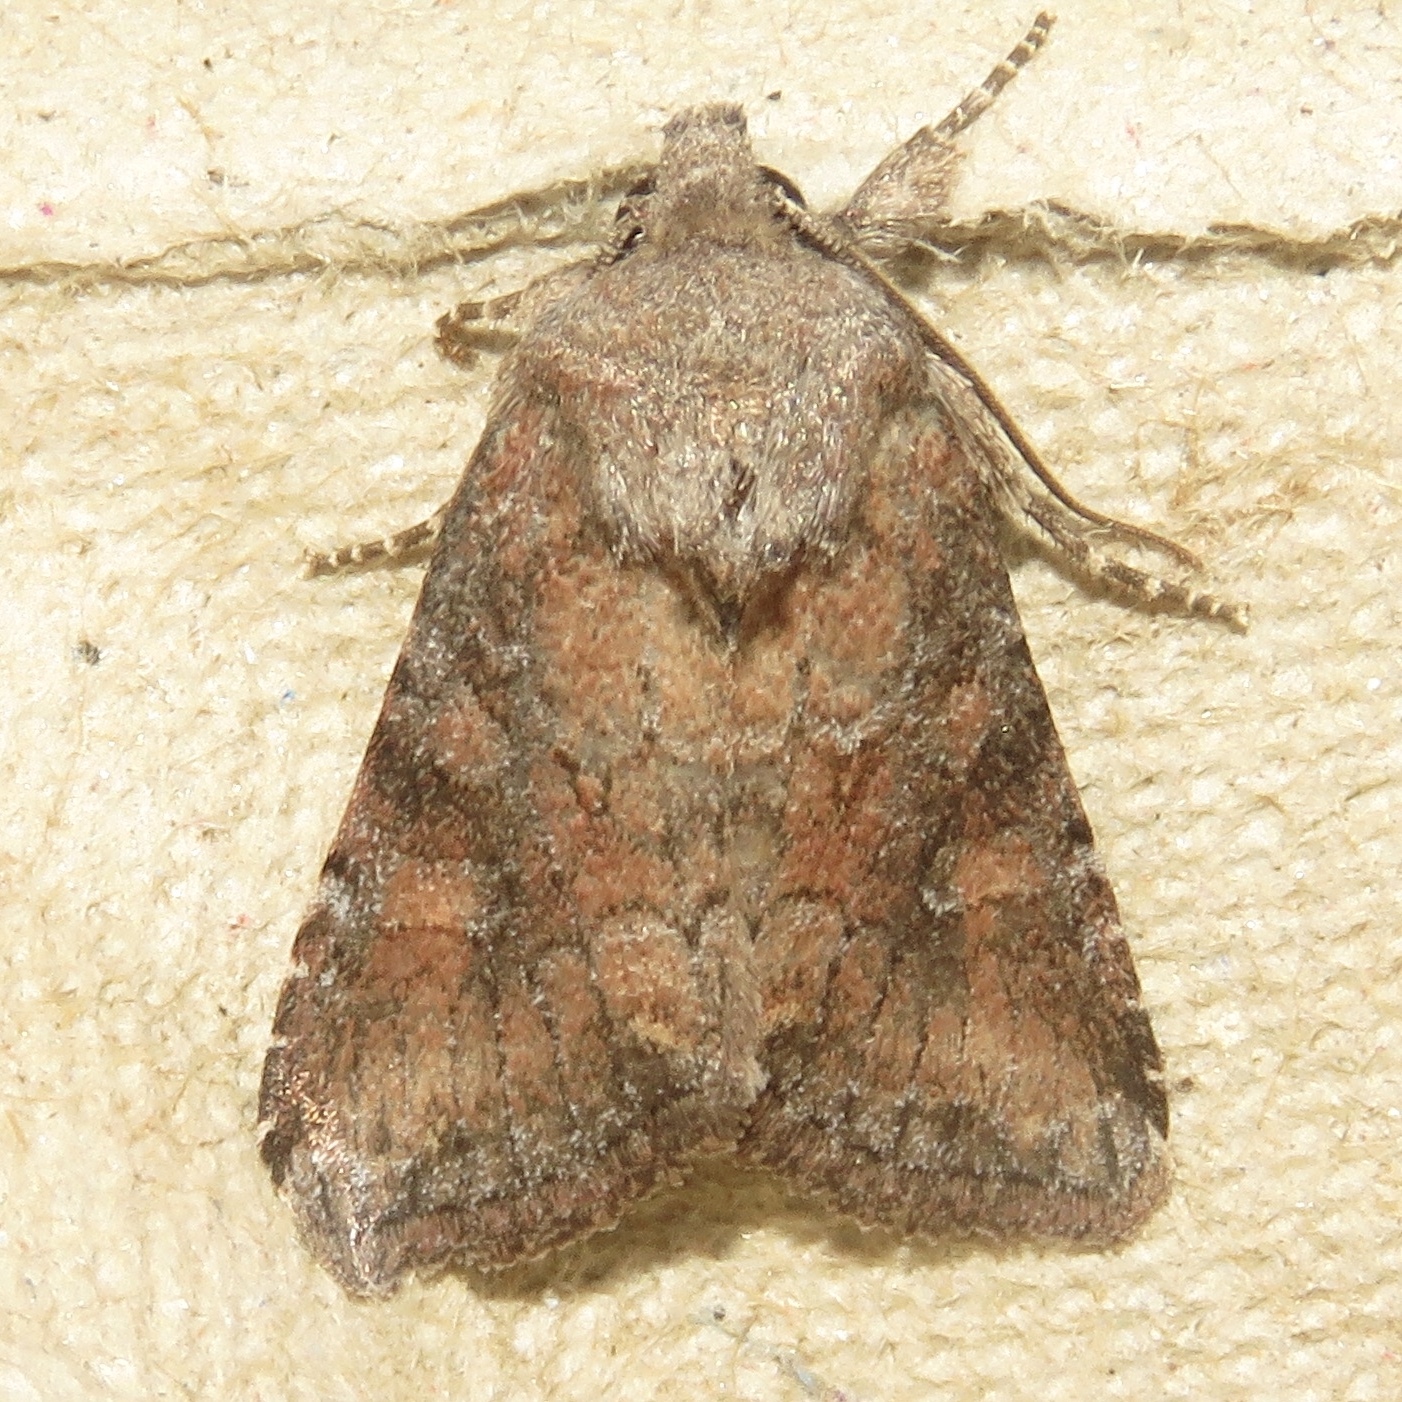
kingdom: Animalia
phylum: Arthropoda
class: Insecta
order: Lepidoptera
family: Noctuidae
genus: Loscopia
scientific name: Loscopia velata
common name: Veiled ear moth
